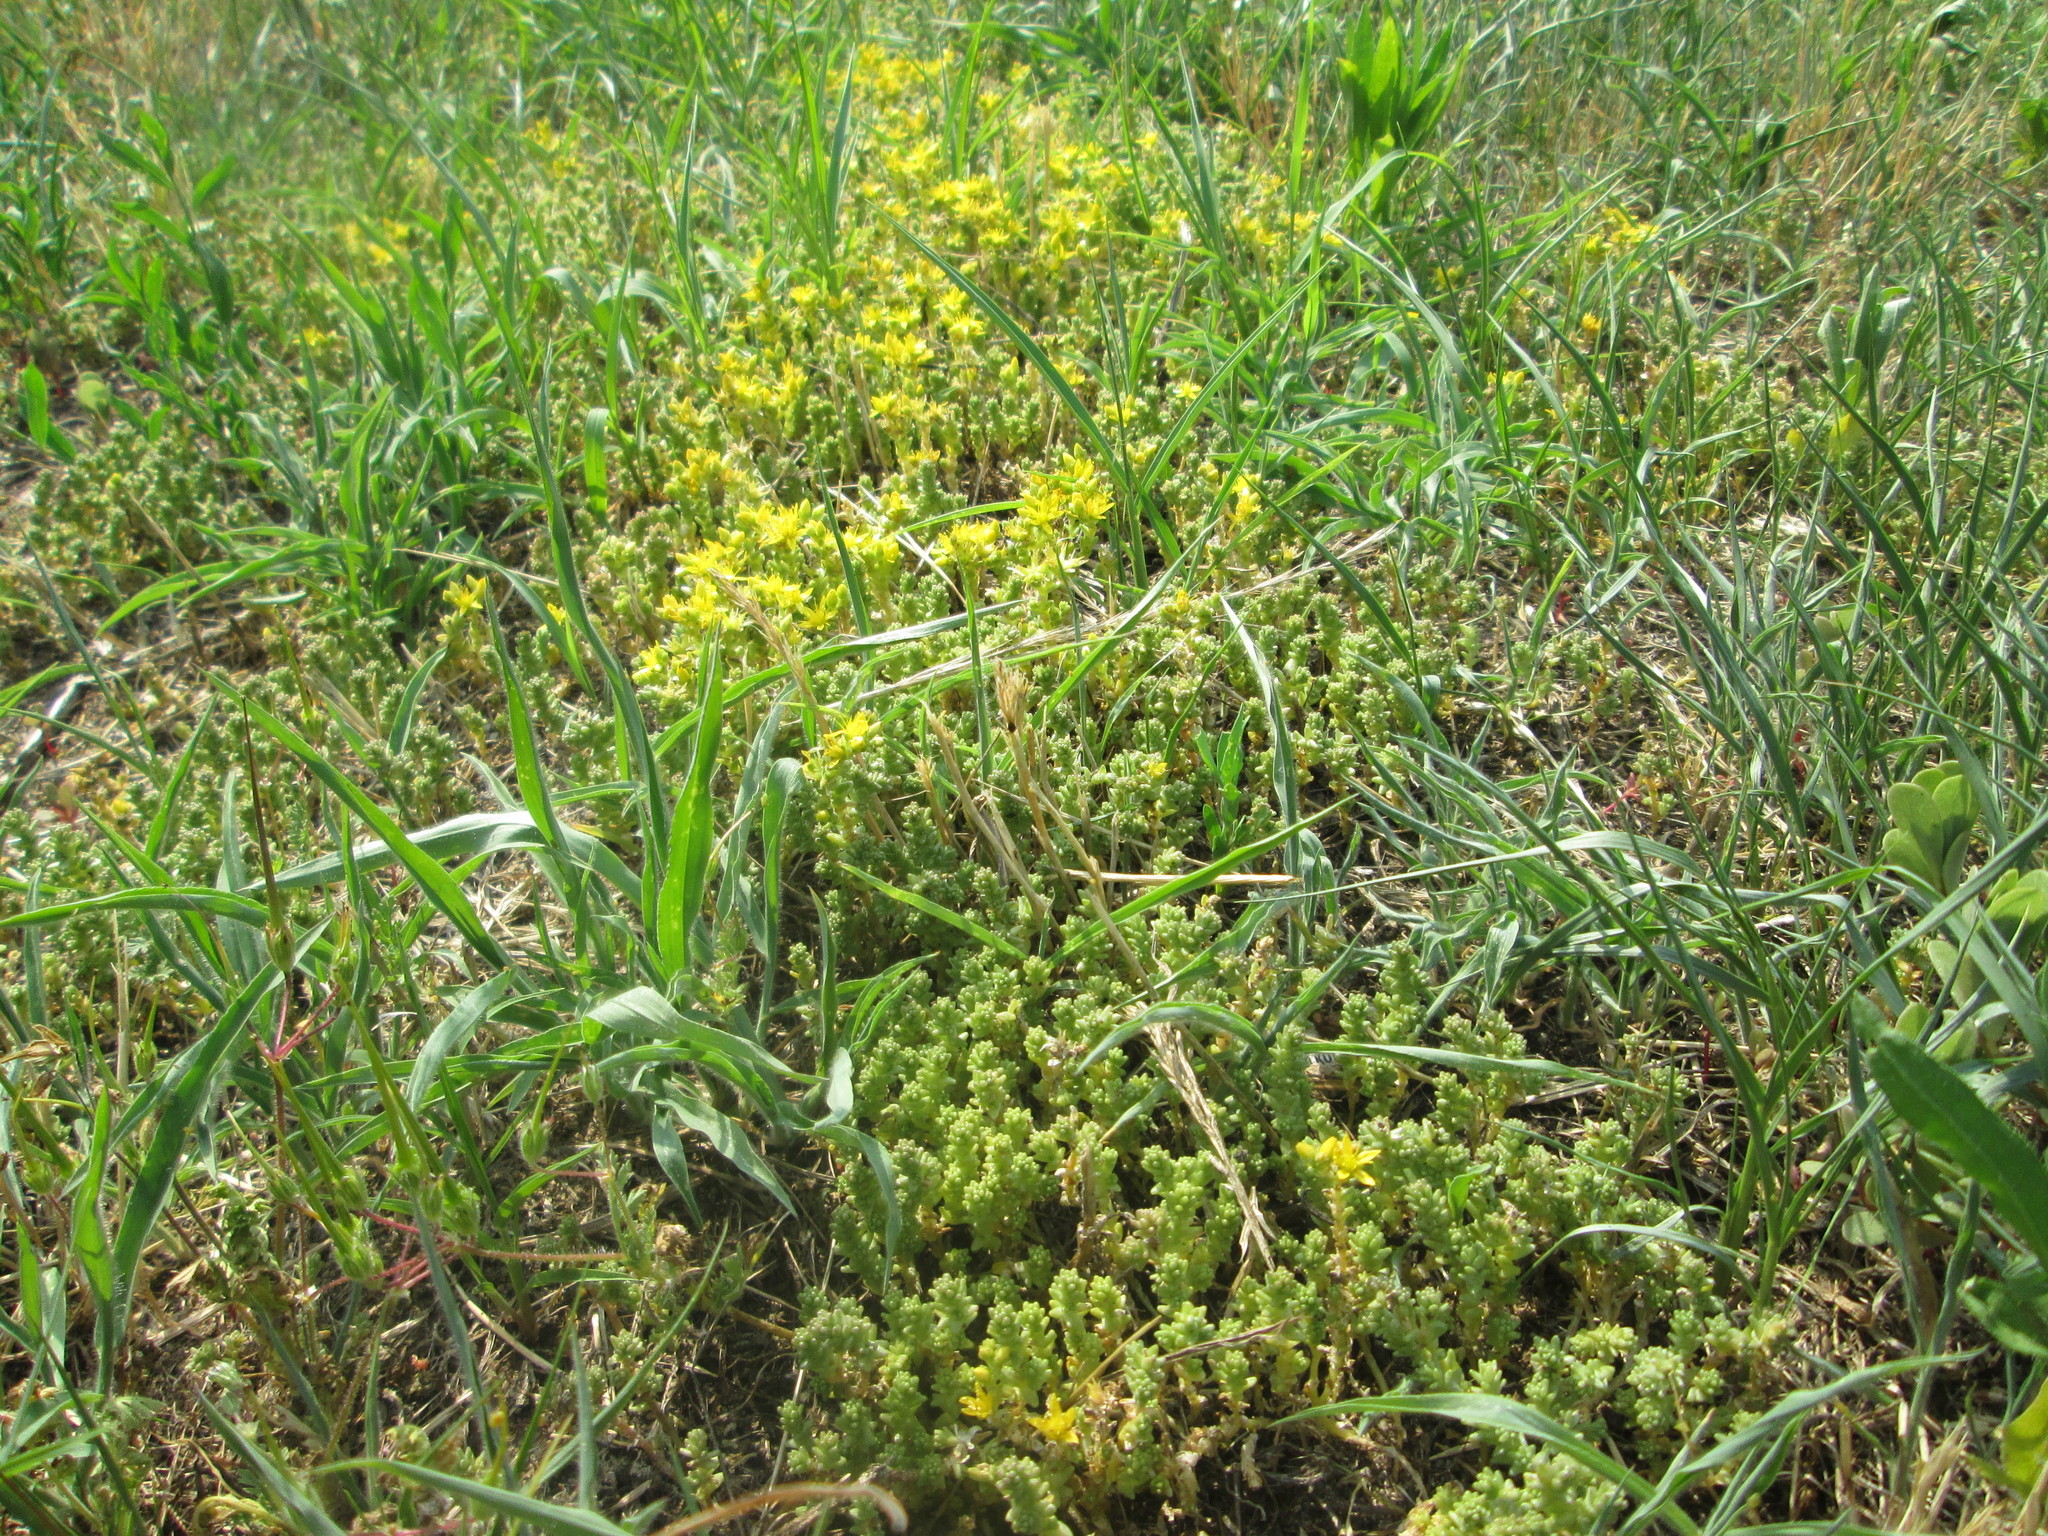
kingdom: Plantae
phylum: Tracheophyta
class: Magnoliopsida
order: Saxifragales
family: Crassulaceae
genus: Sedum
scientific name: Sedum acre
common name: Biting stonecrop
